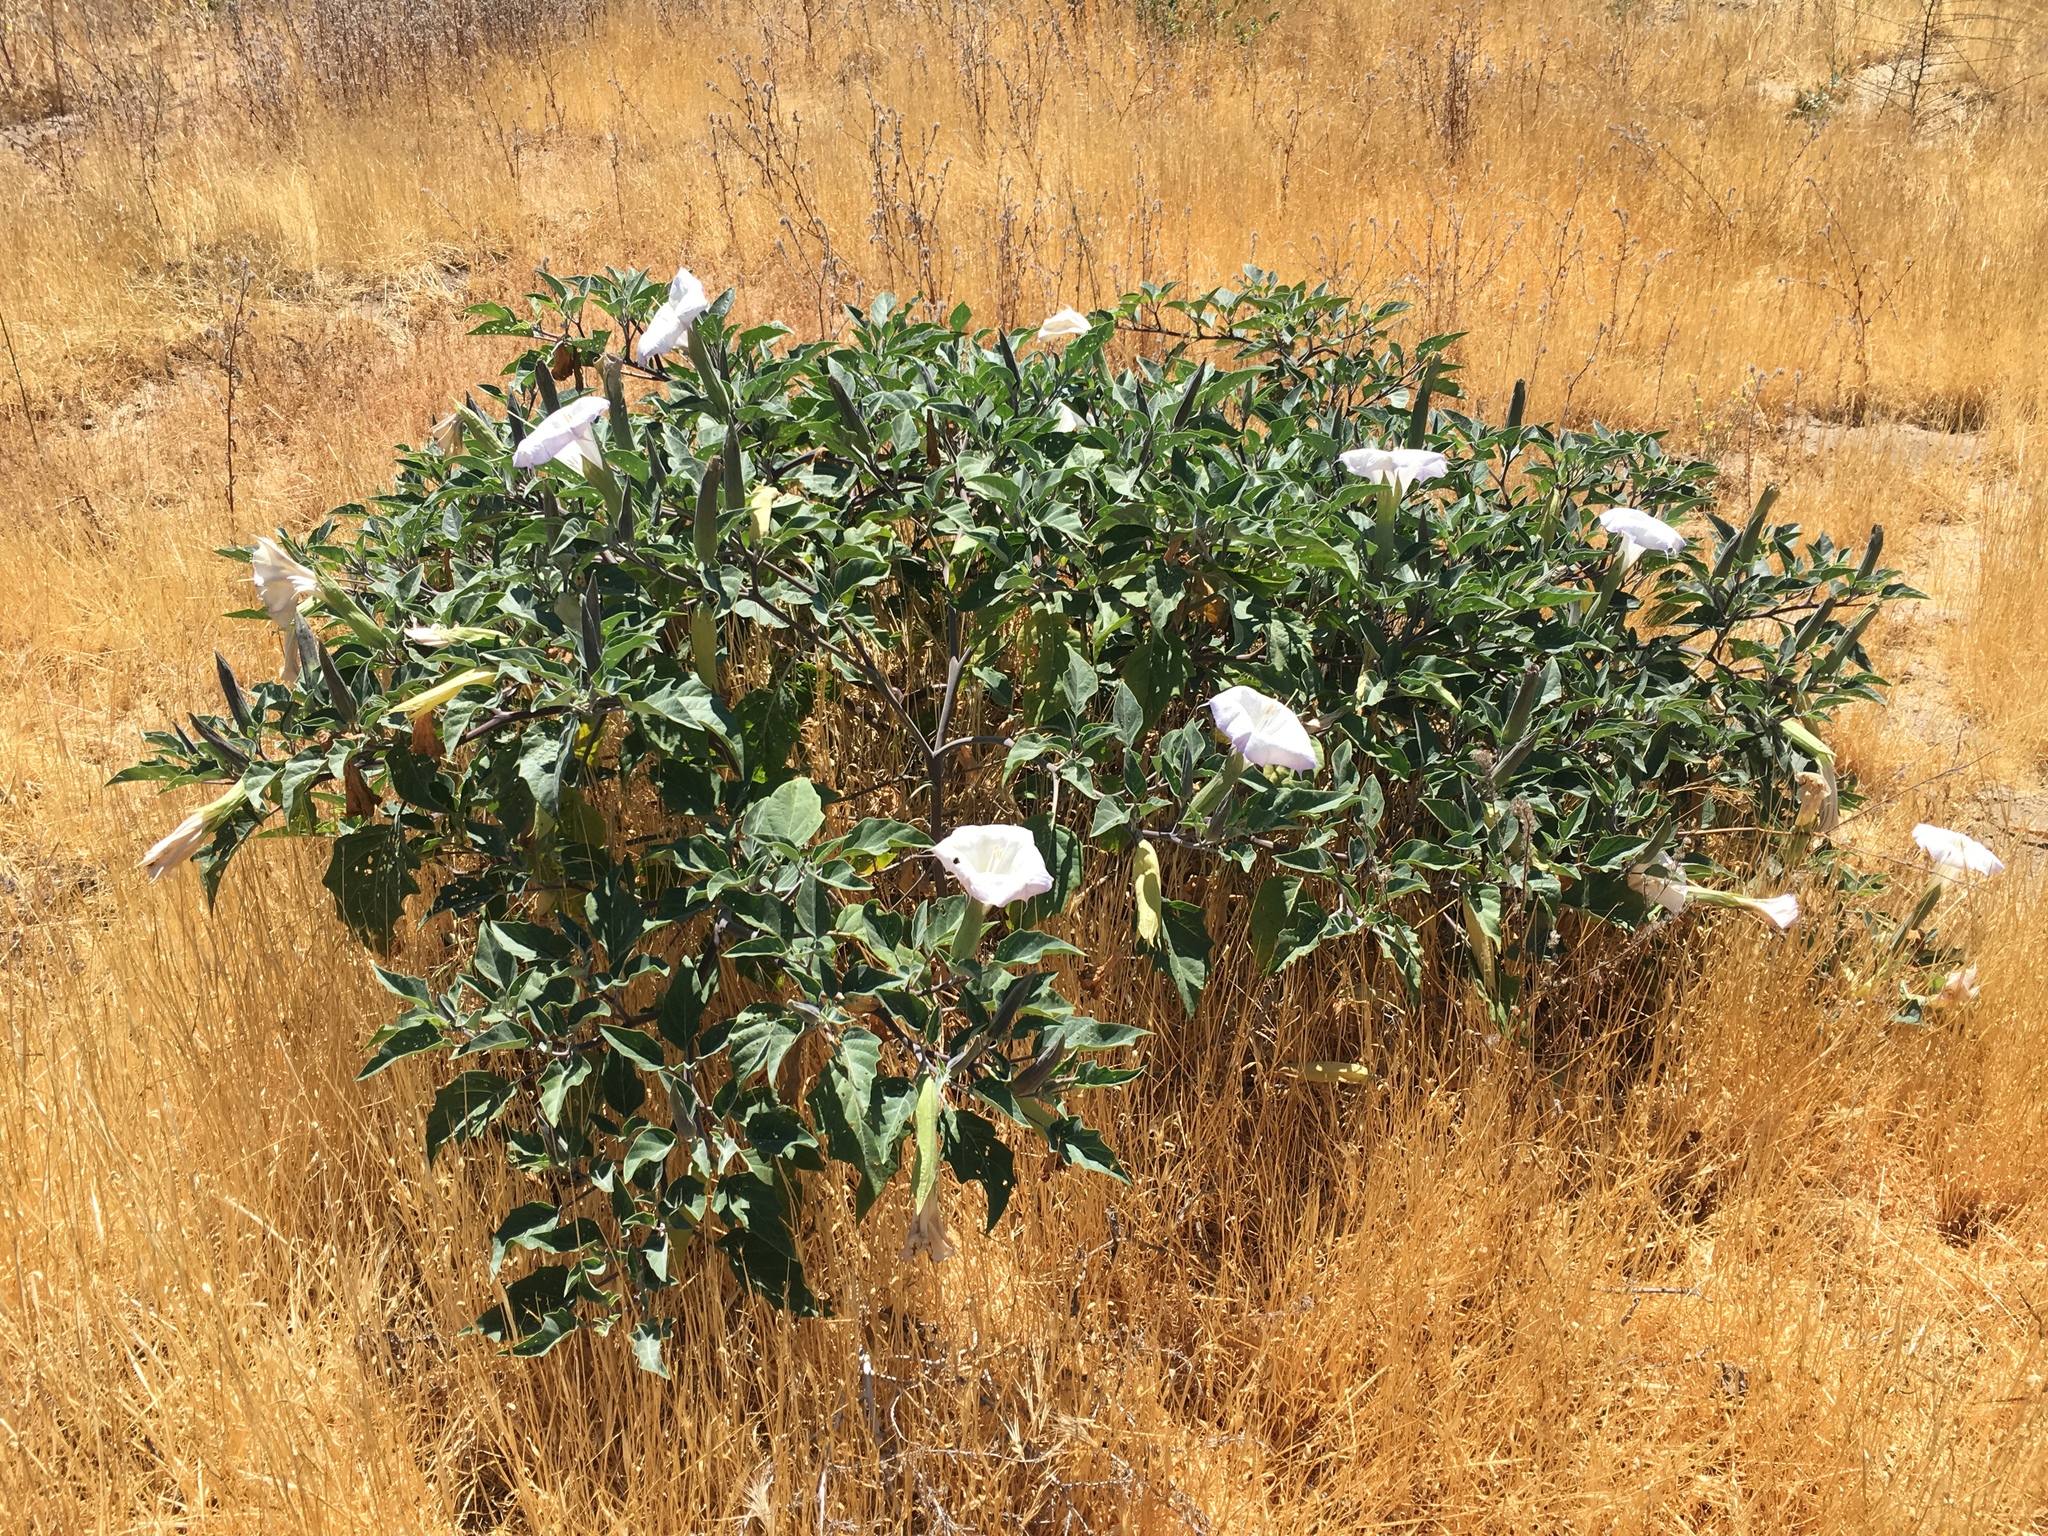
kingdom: Plantae
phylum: Tracheophyta
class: Magnoliopsida
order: Solanales
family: Solanaceae
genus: Datura
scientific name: Datura wrightii
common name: Sacred thorn-apple
